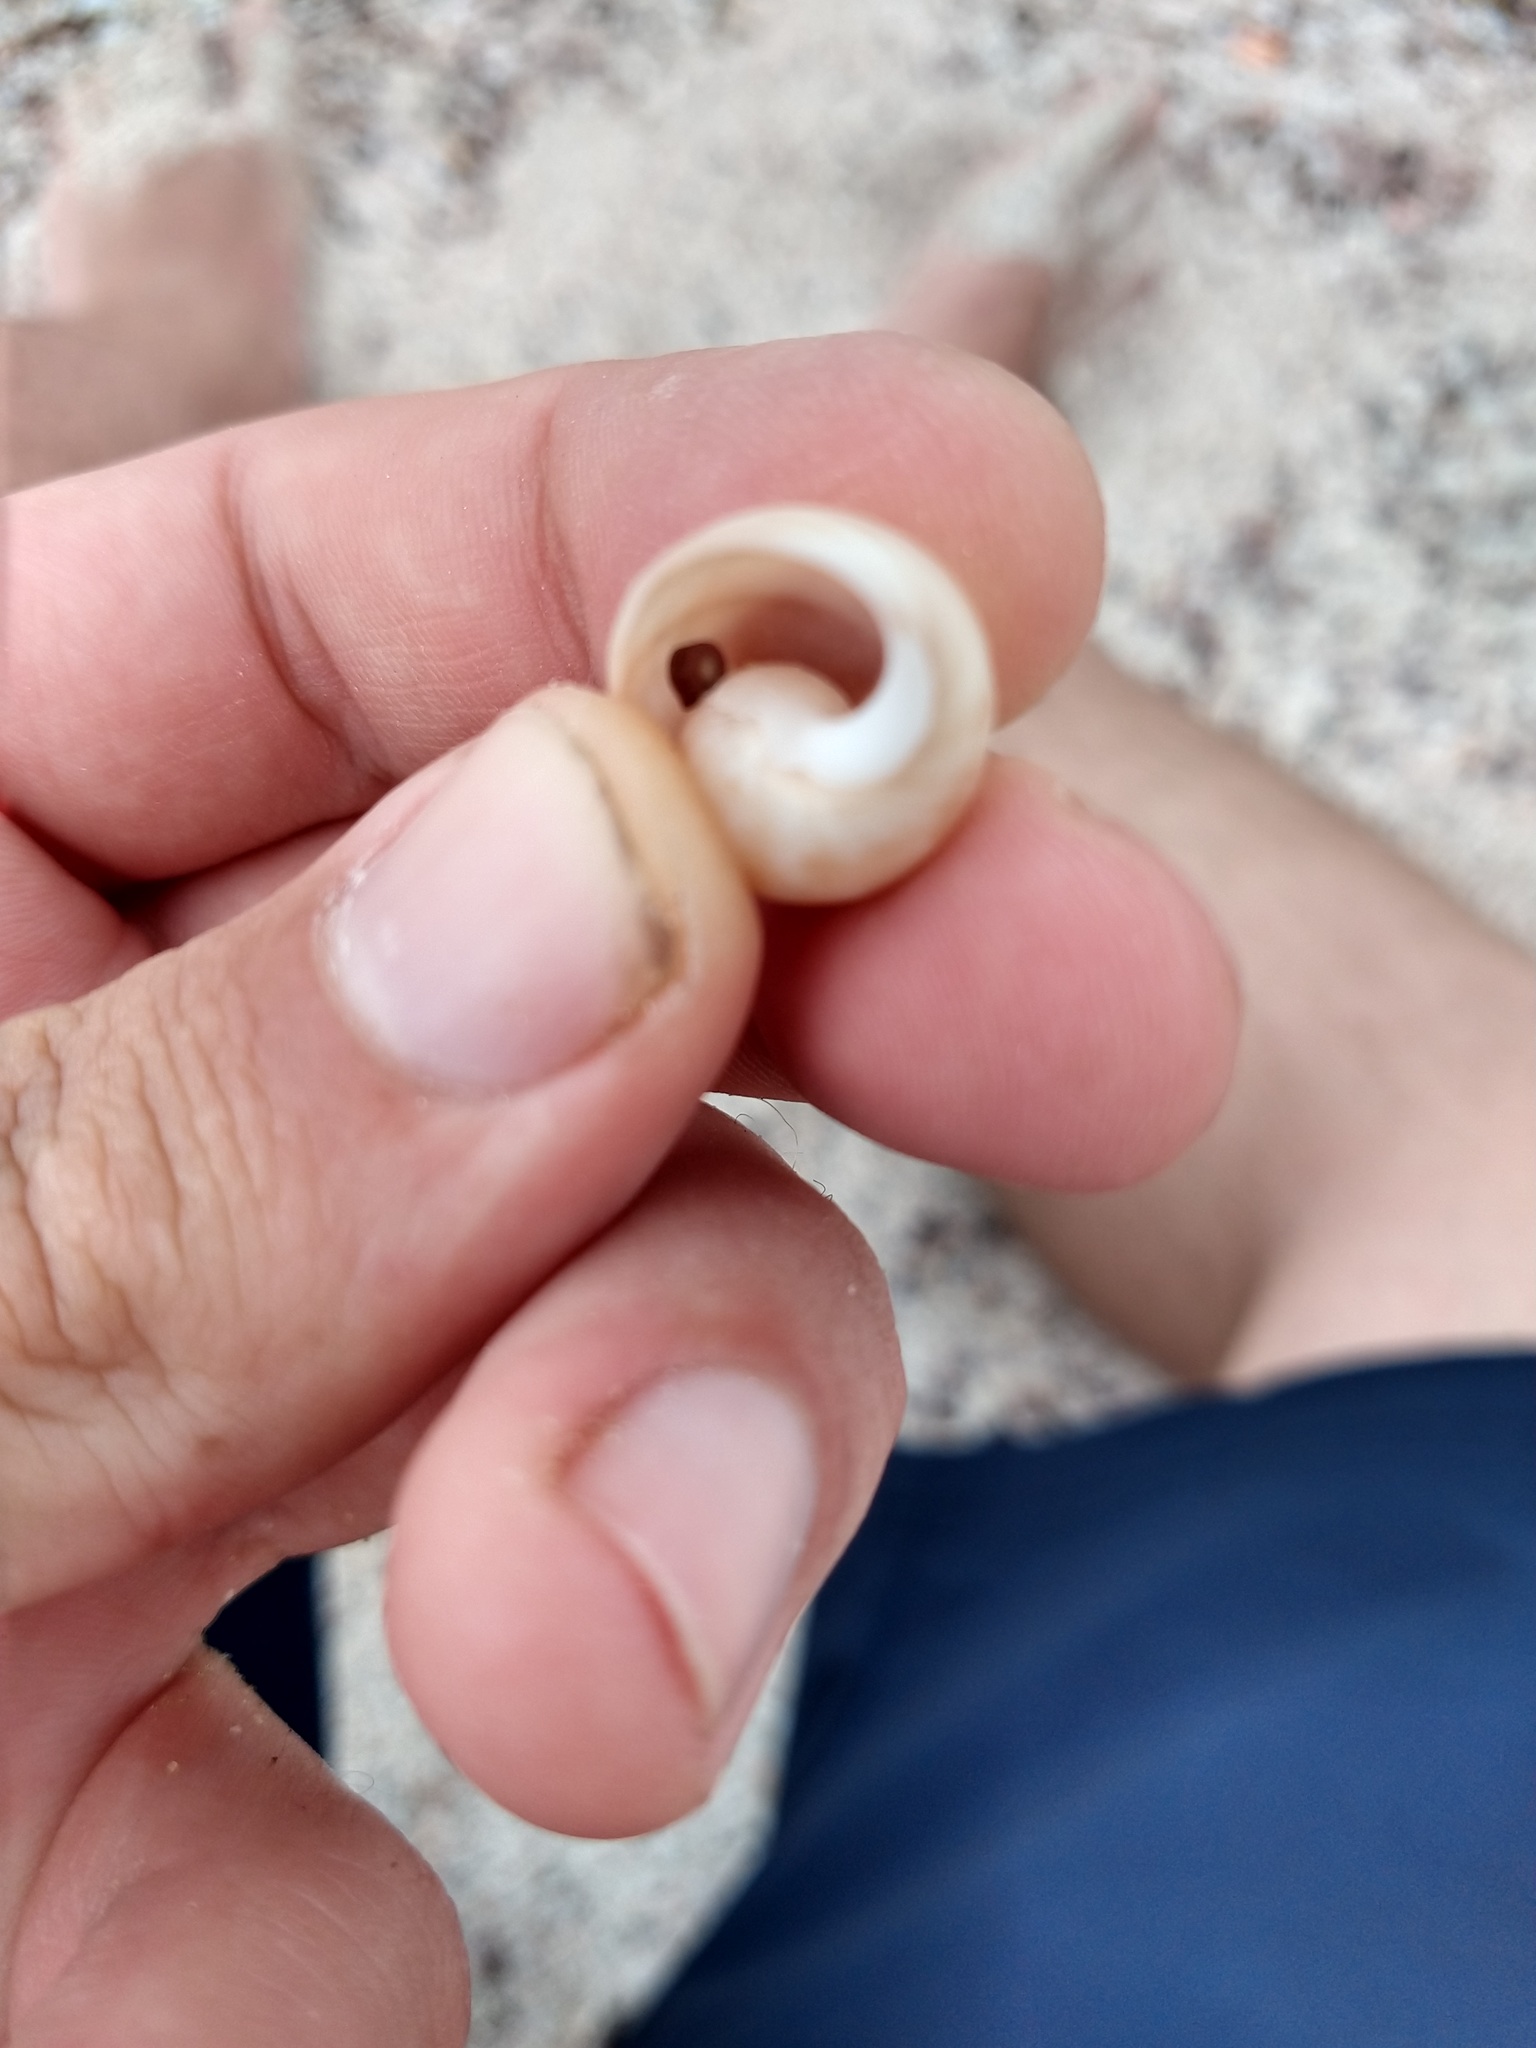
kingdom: Animalia
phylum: Mollusca
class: Gastropoda
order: Cephalaspidea
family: Bullidae
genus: Bulla
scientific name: Bulla punctulata
